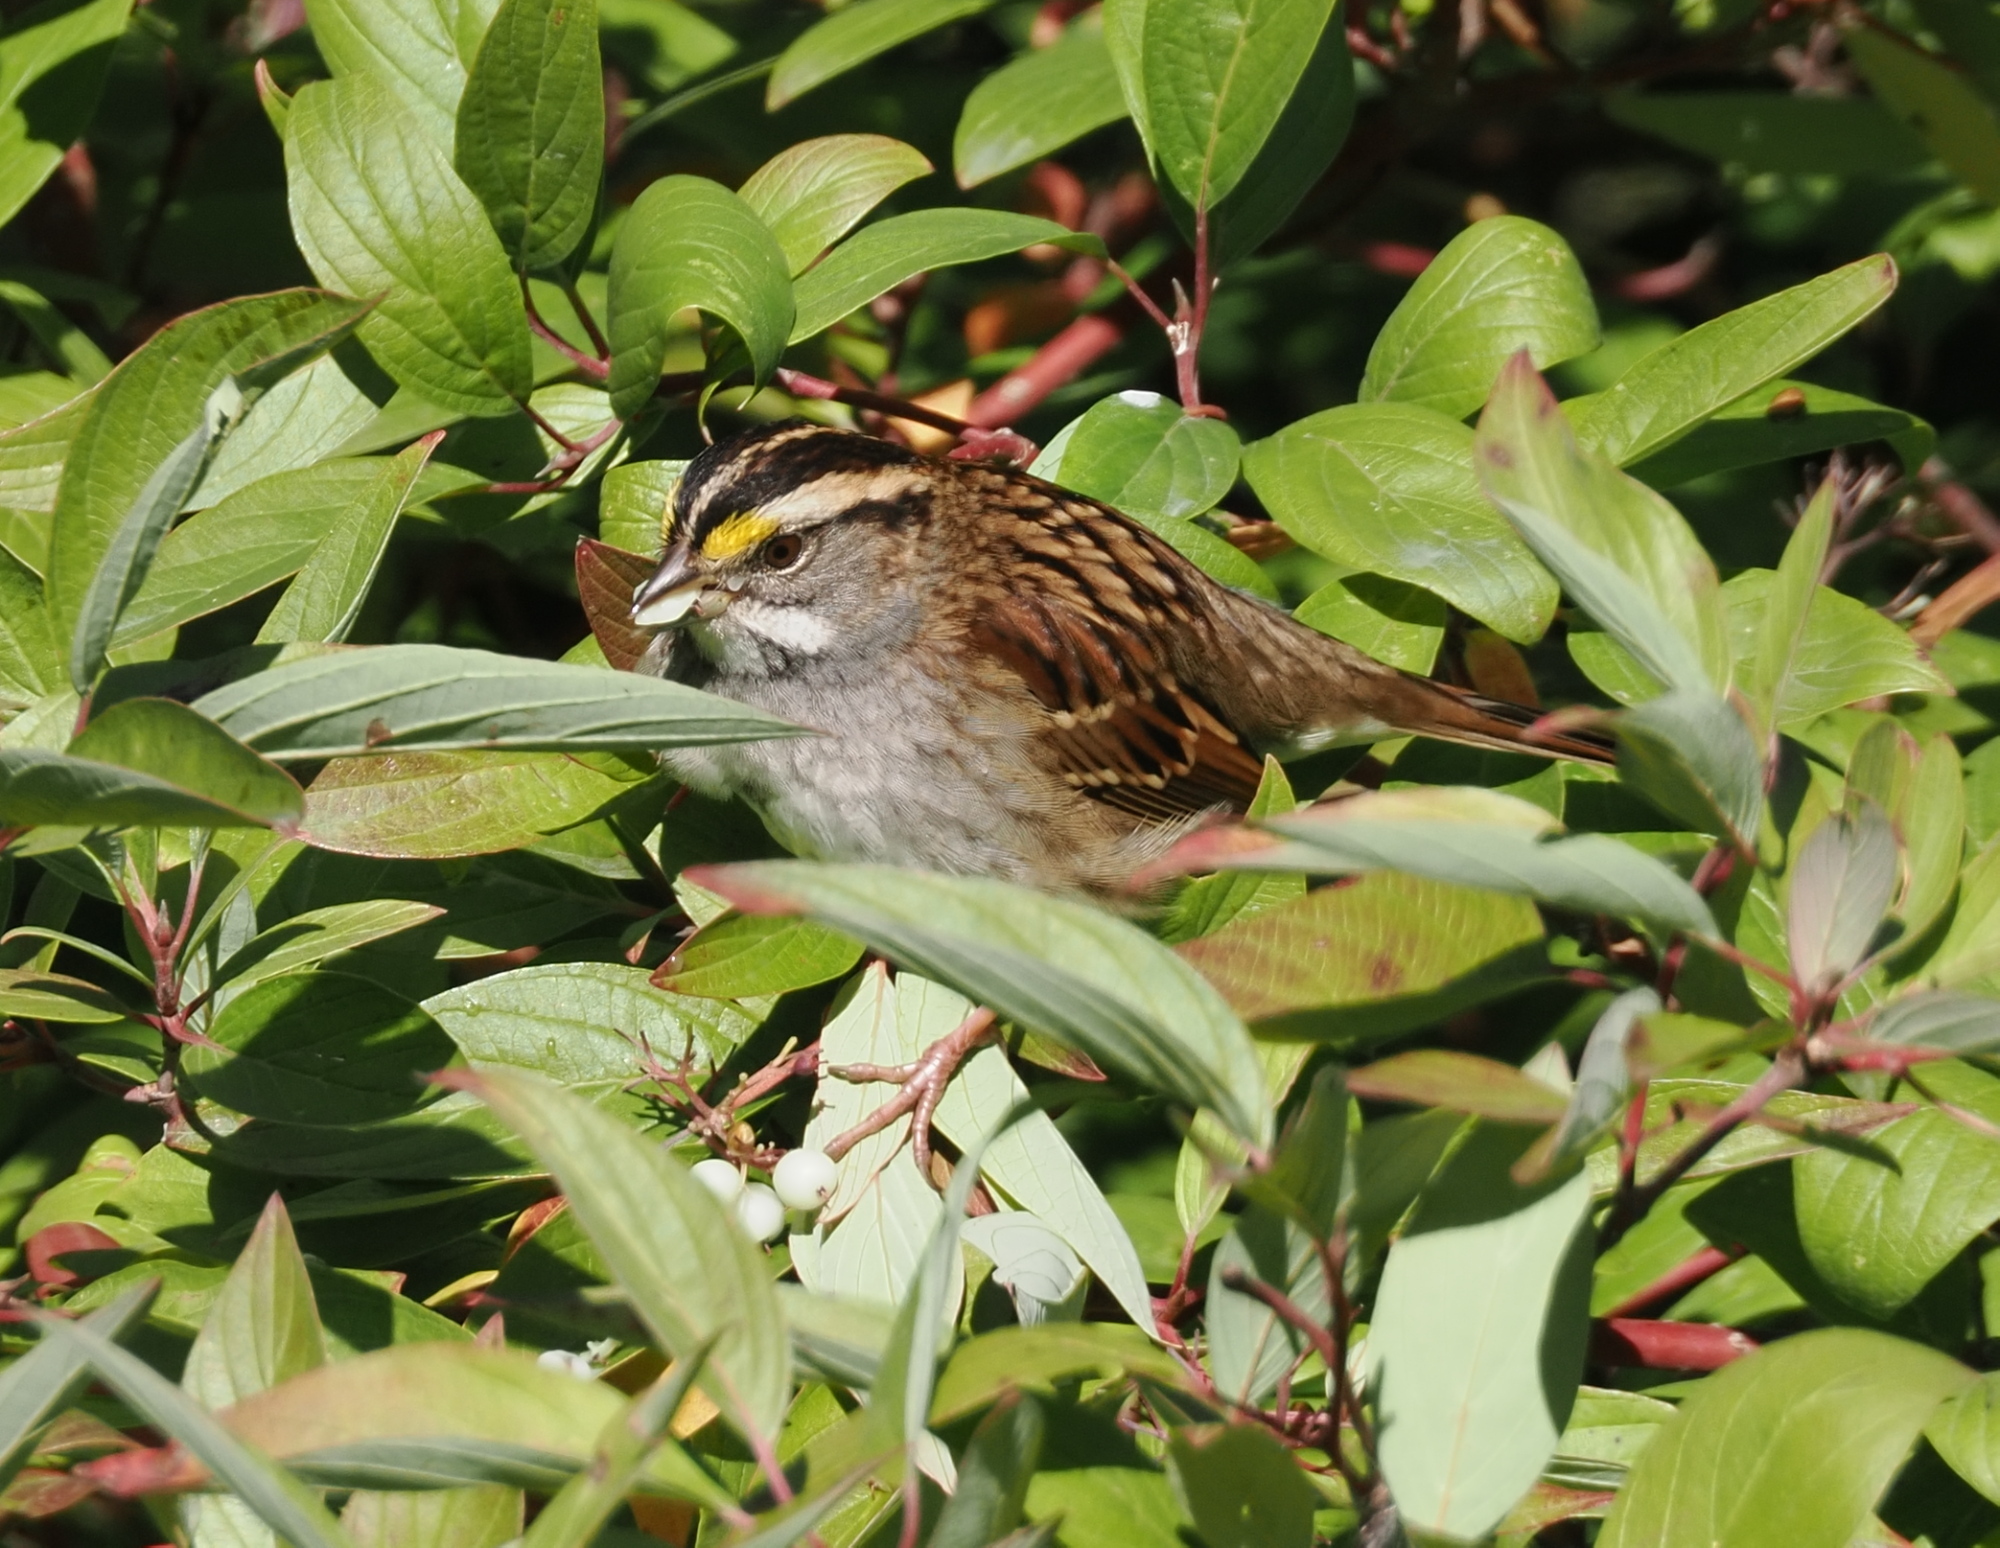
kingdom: Animalia
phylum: Chordata
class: Aves
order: Passeriformes
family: Passerellidae
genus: Zonotrichia
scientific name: Zonotrichia albicollis
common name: White-throated sparrow
